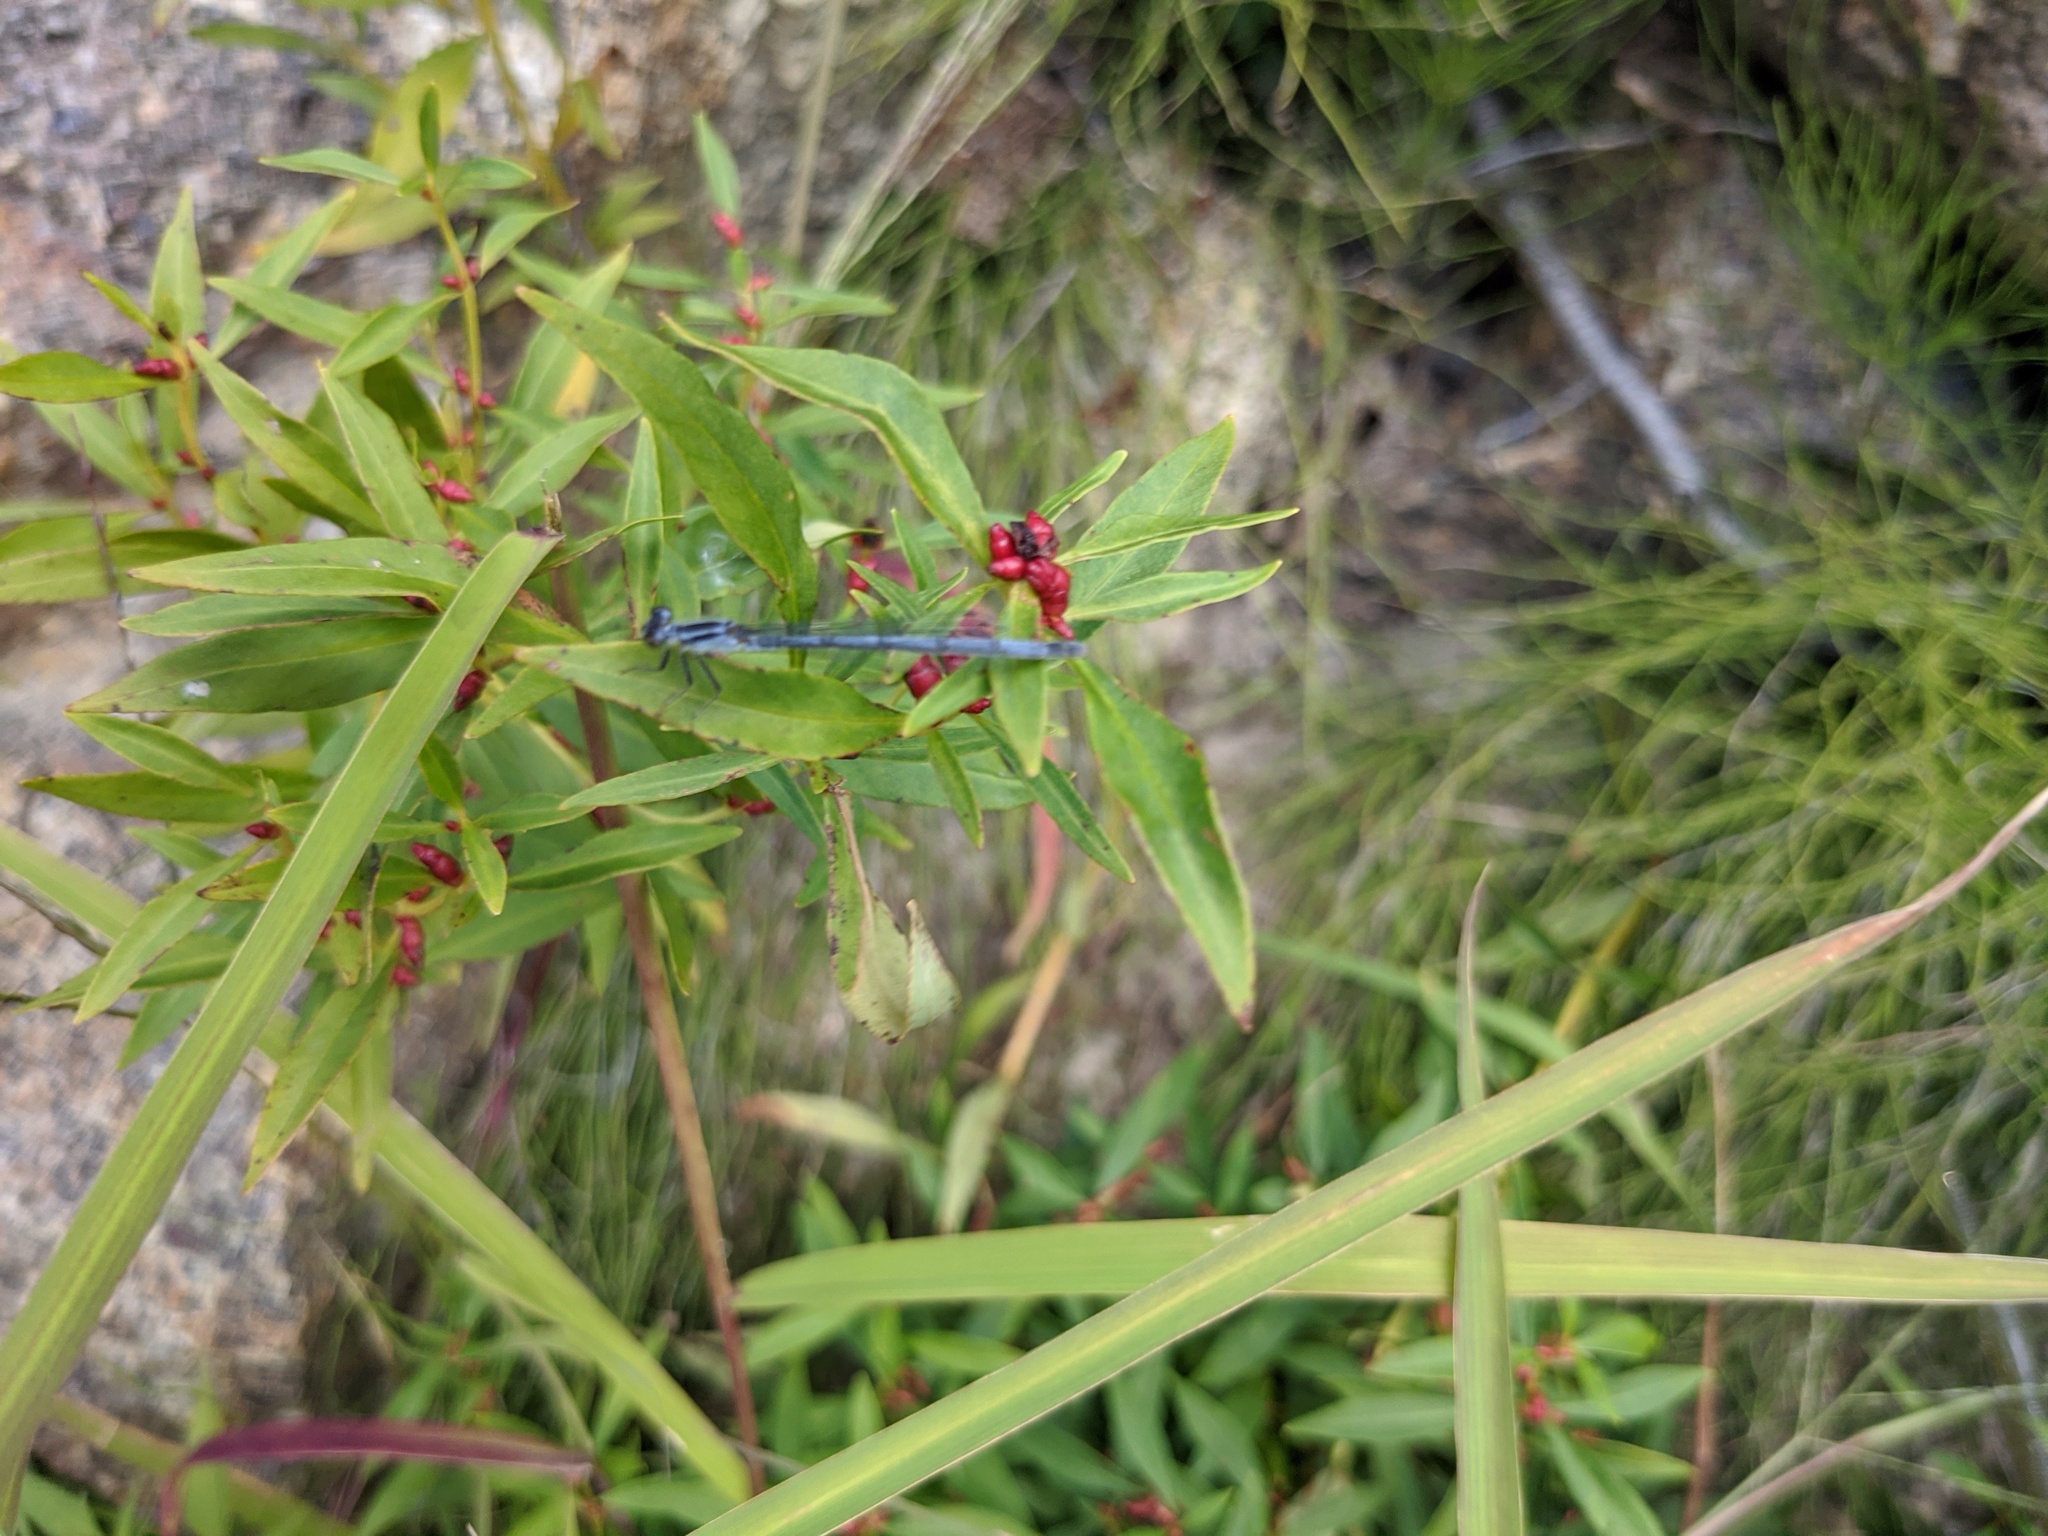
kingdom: Animalia
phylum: Arthropoda
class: Insecta
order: Odonata
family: Coenagrionidae
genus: Ischnura
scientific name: Ischnura verticalis
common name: Eastern forktail
